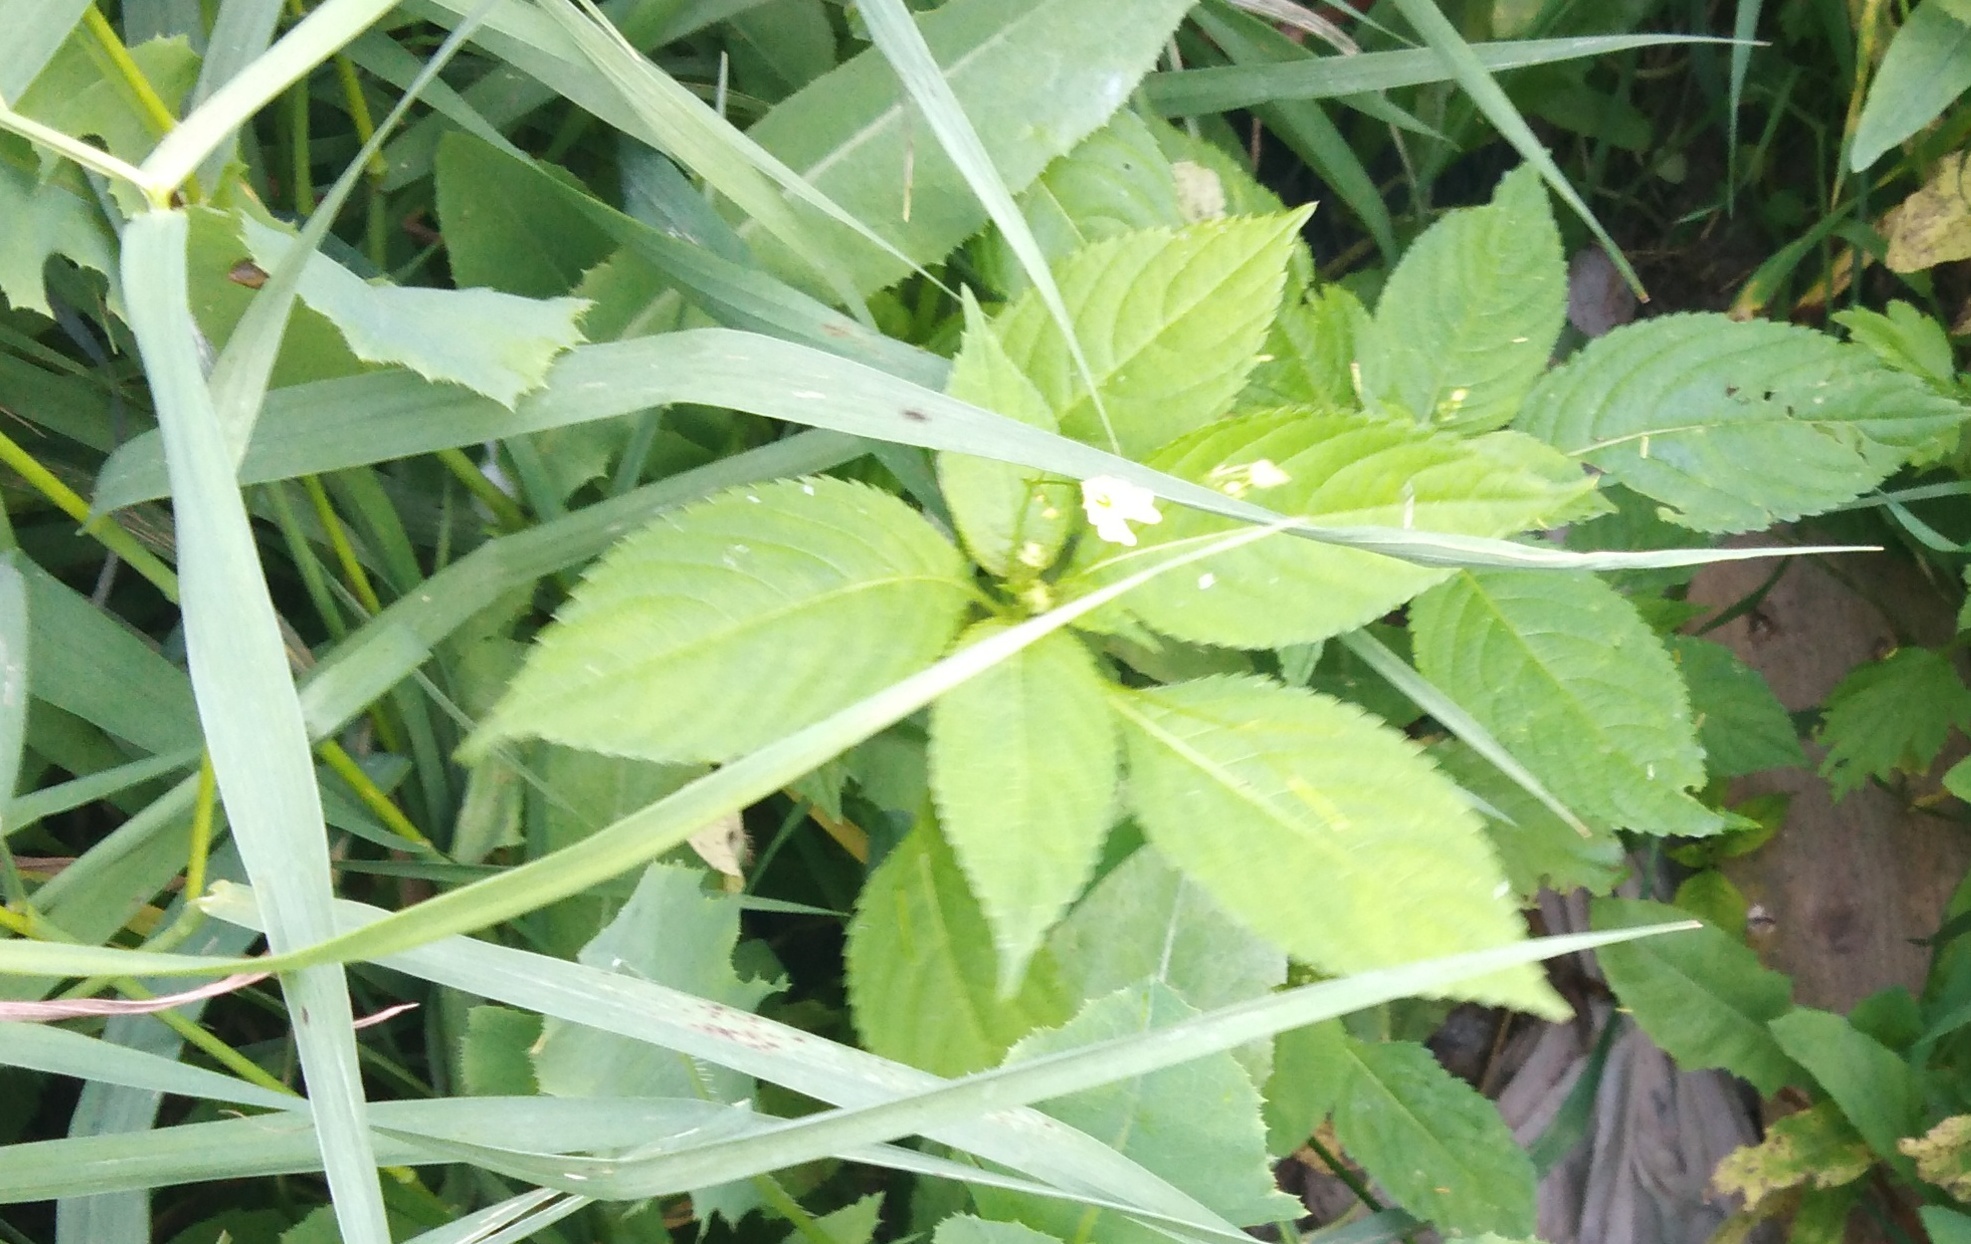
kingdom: Plantae
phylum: Tracheophyta
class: Magnoliopsida
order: Ericales
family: Balsaminaceae
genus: Impatiens
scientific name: Impatiens parviflora
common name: Small balsam
